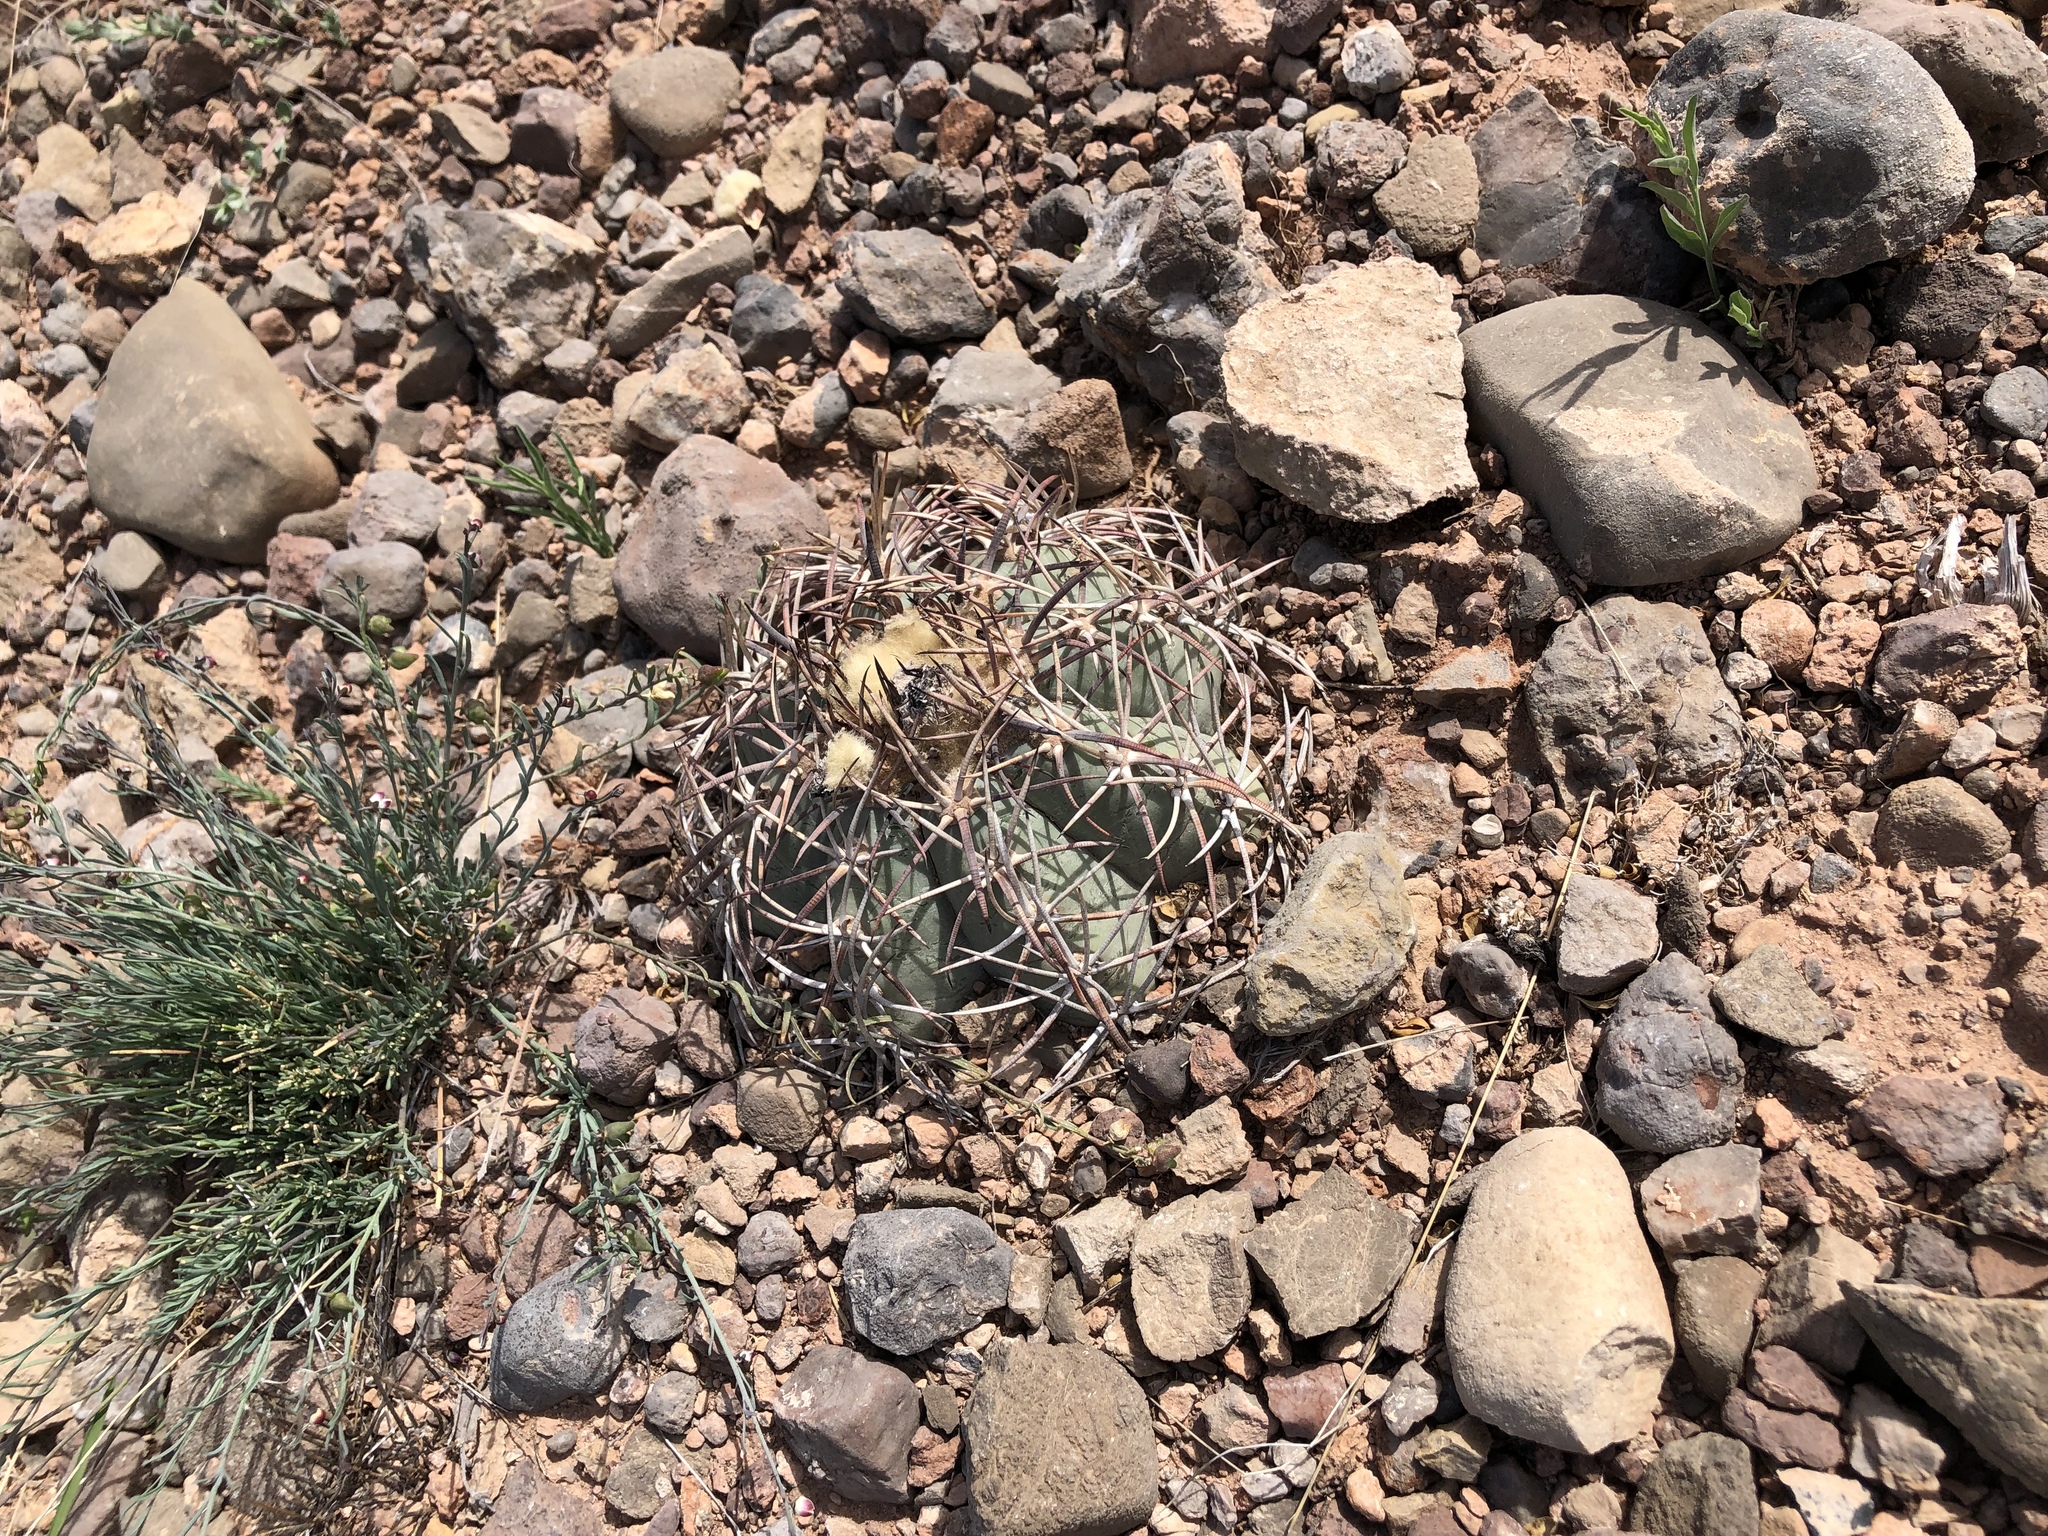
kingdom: Plantae
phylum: Tracheophyta
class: Magnoliopsida
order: Caryophyllales
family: Cactaceae
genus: Echinocactus
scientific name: Echinocactus horizonthalonius
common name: Devilshead
